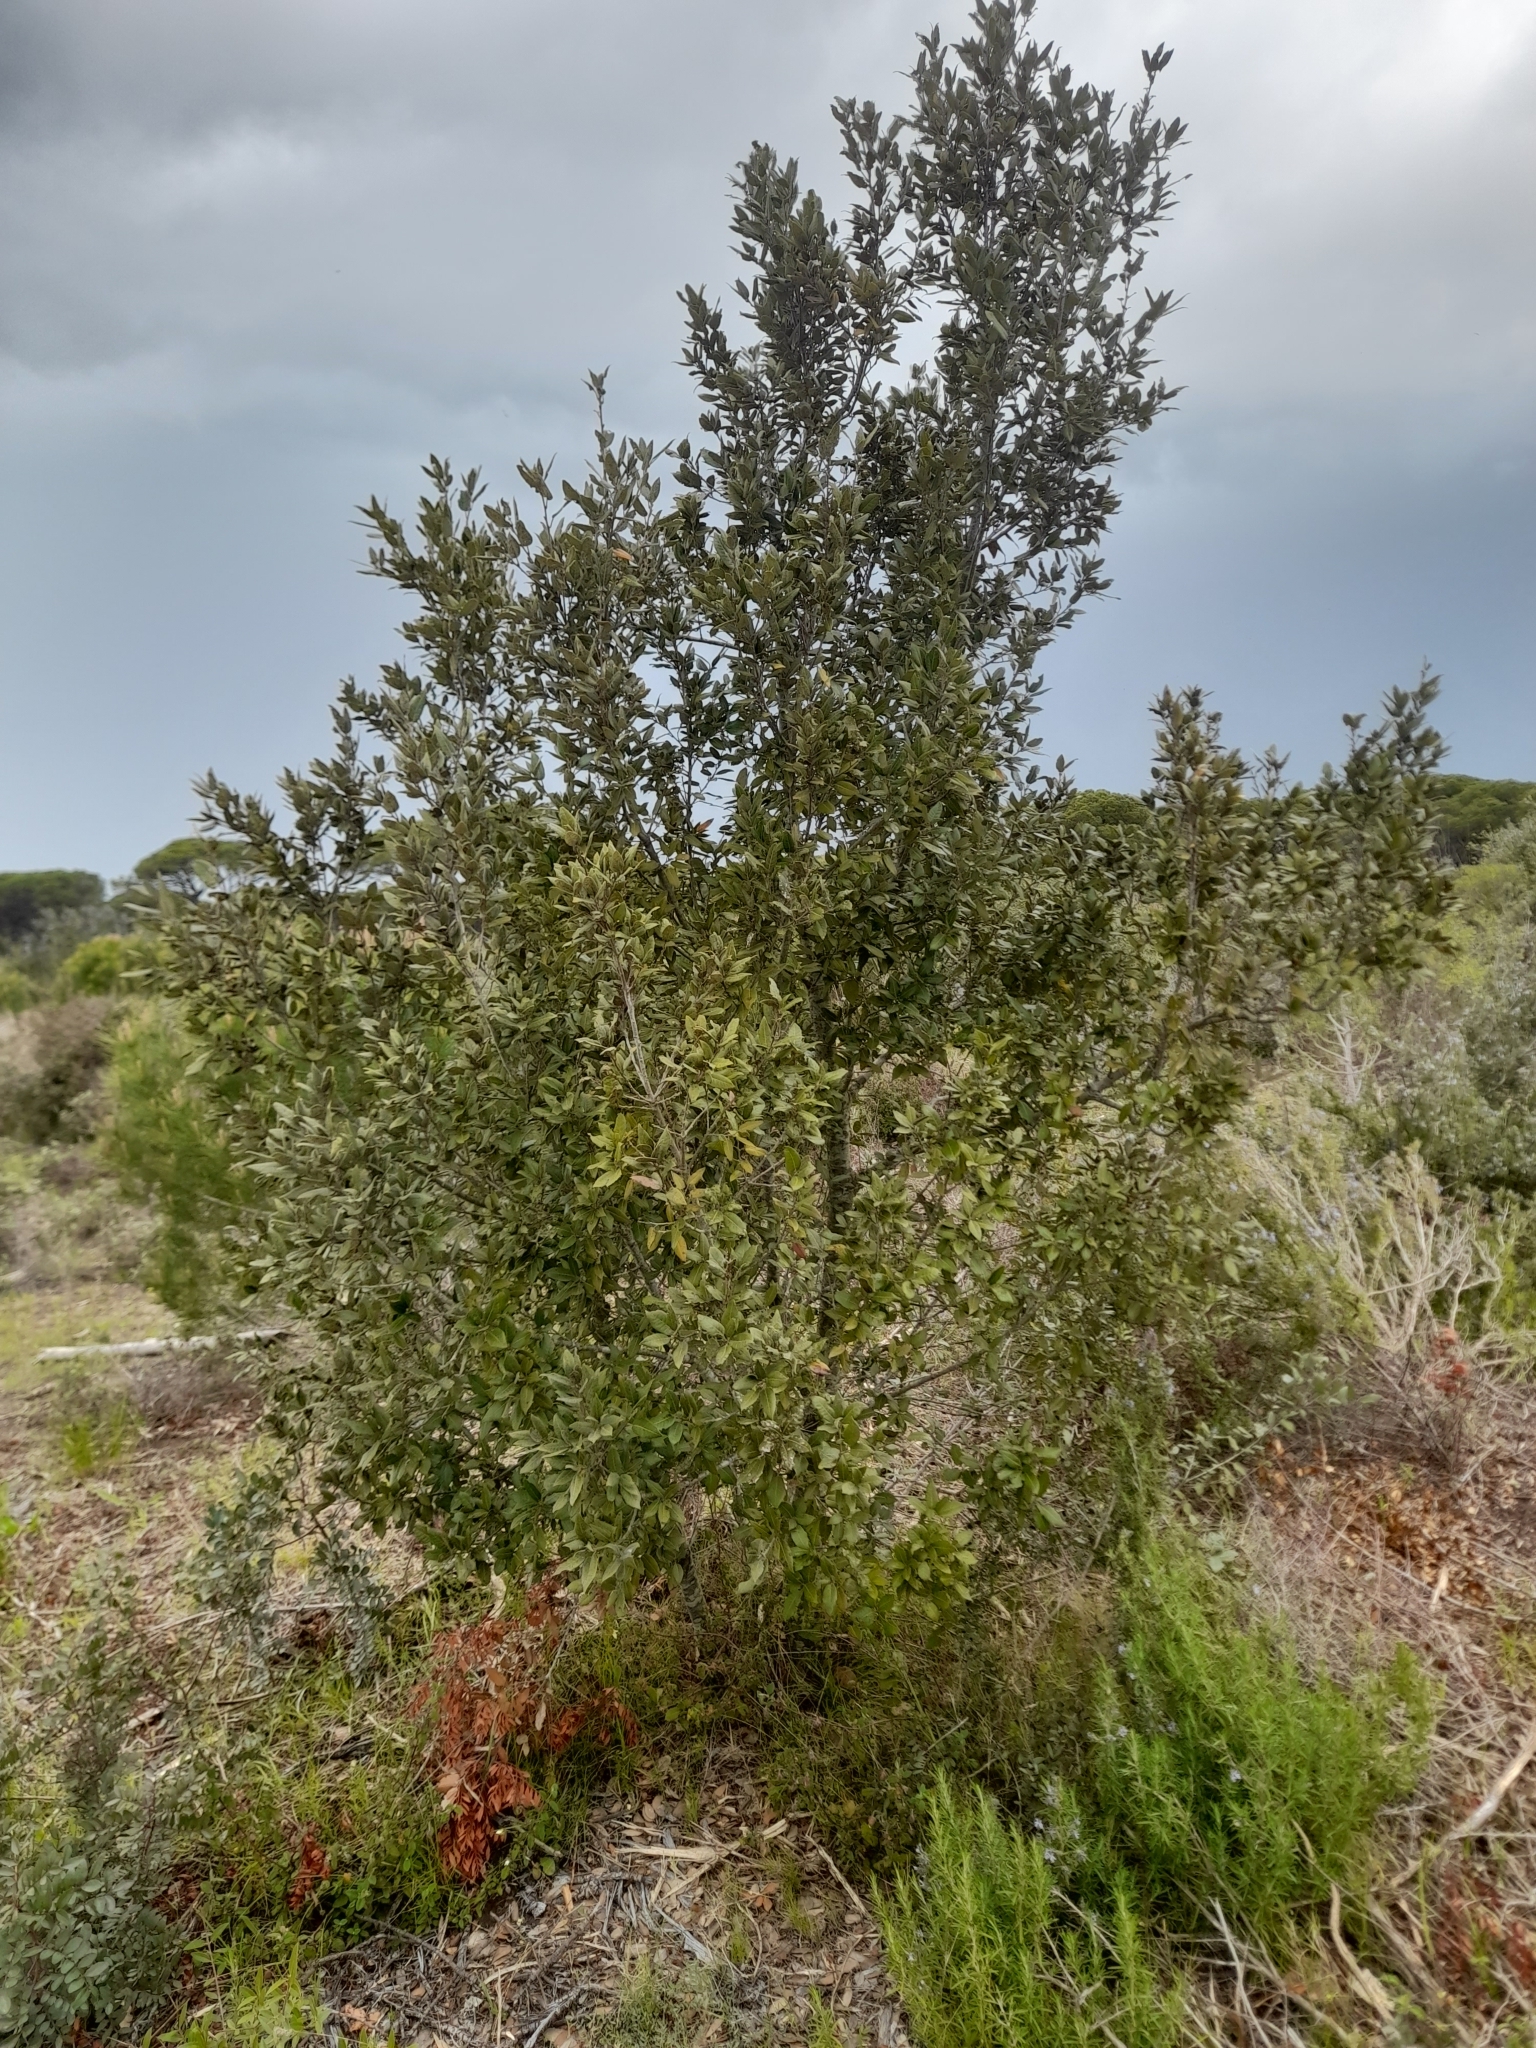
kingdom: Plantae
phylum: Tracheophyta
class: Magnoliopsida
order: Fagales
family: Fagaceae
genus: Quercus
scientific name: Quercus ilex
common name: Evergreen oak
